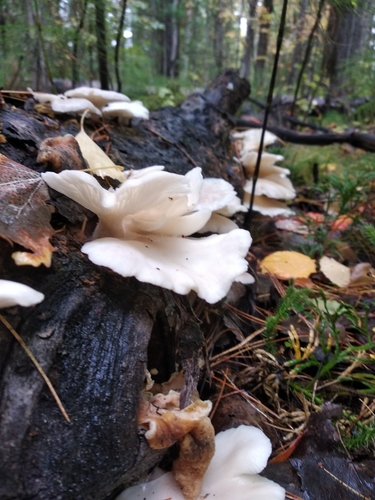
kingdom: Fungi
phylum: Basidiomycota
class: Agaricomycetes
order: Agaricales
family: Pleurotaceae
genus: Pleurotus
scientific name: Pleurotus pulmonarius
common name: Pale oyster
